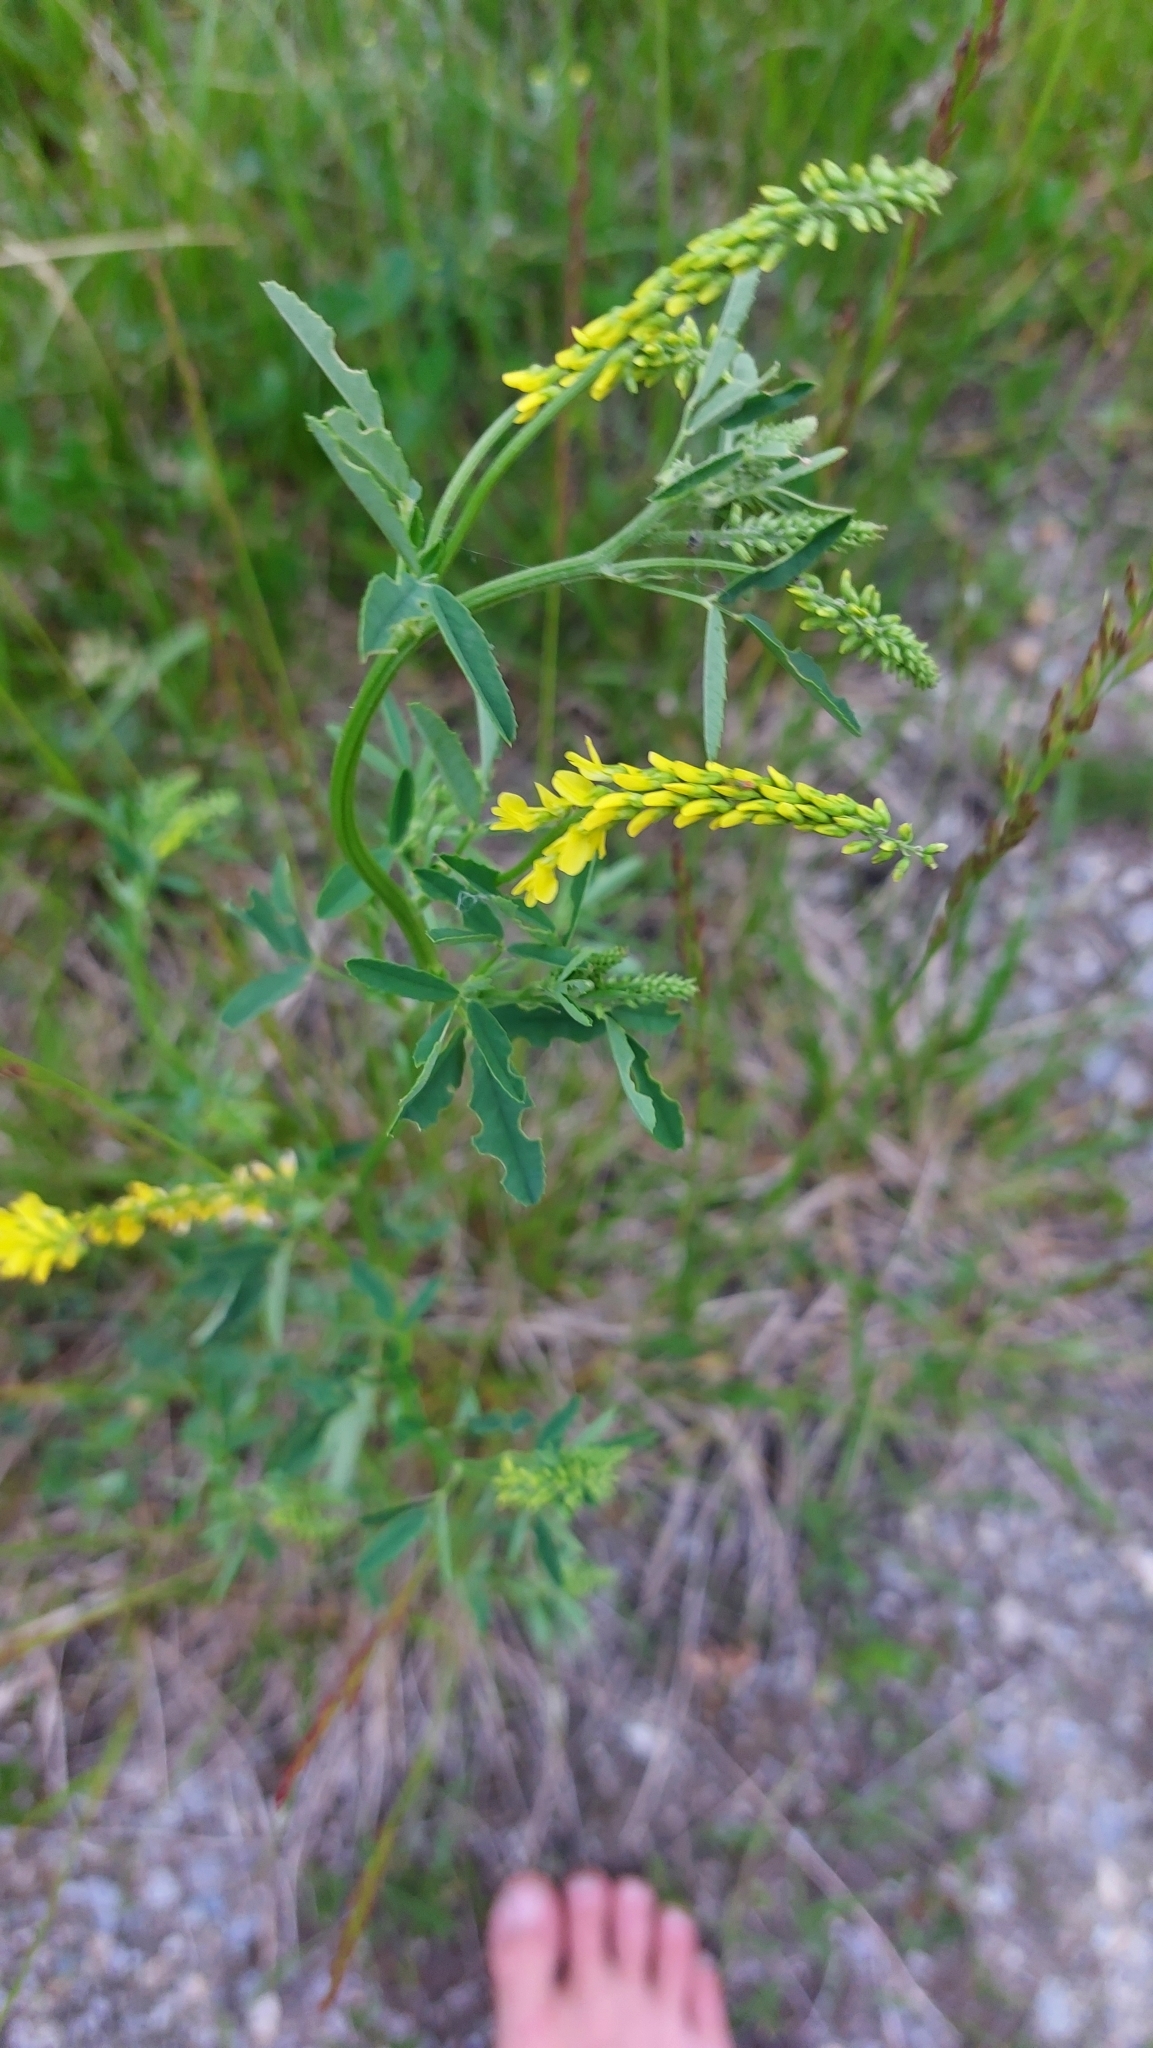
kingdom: Plantae
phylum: Tracheophyta
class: Magnoliopsida
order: Fabales
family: Fabaceae
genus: Melilotus
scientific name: Melilotus officinalis
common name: Sweetclover
